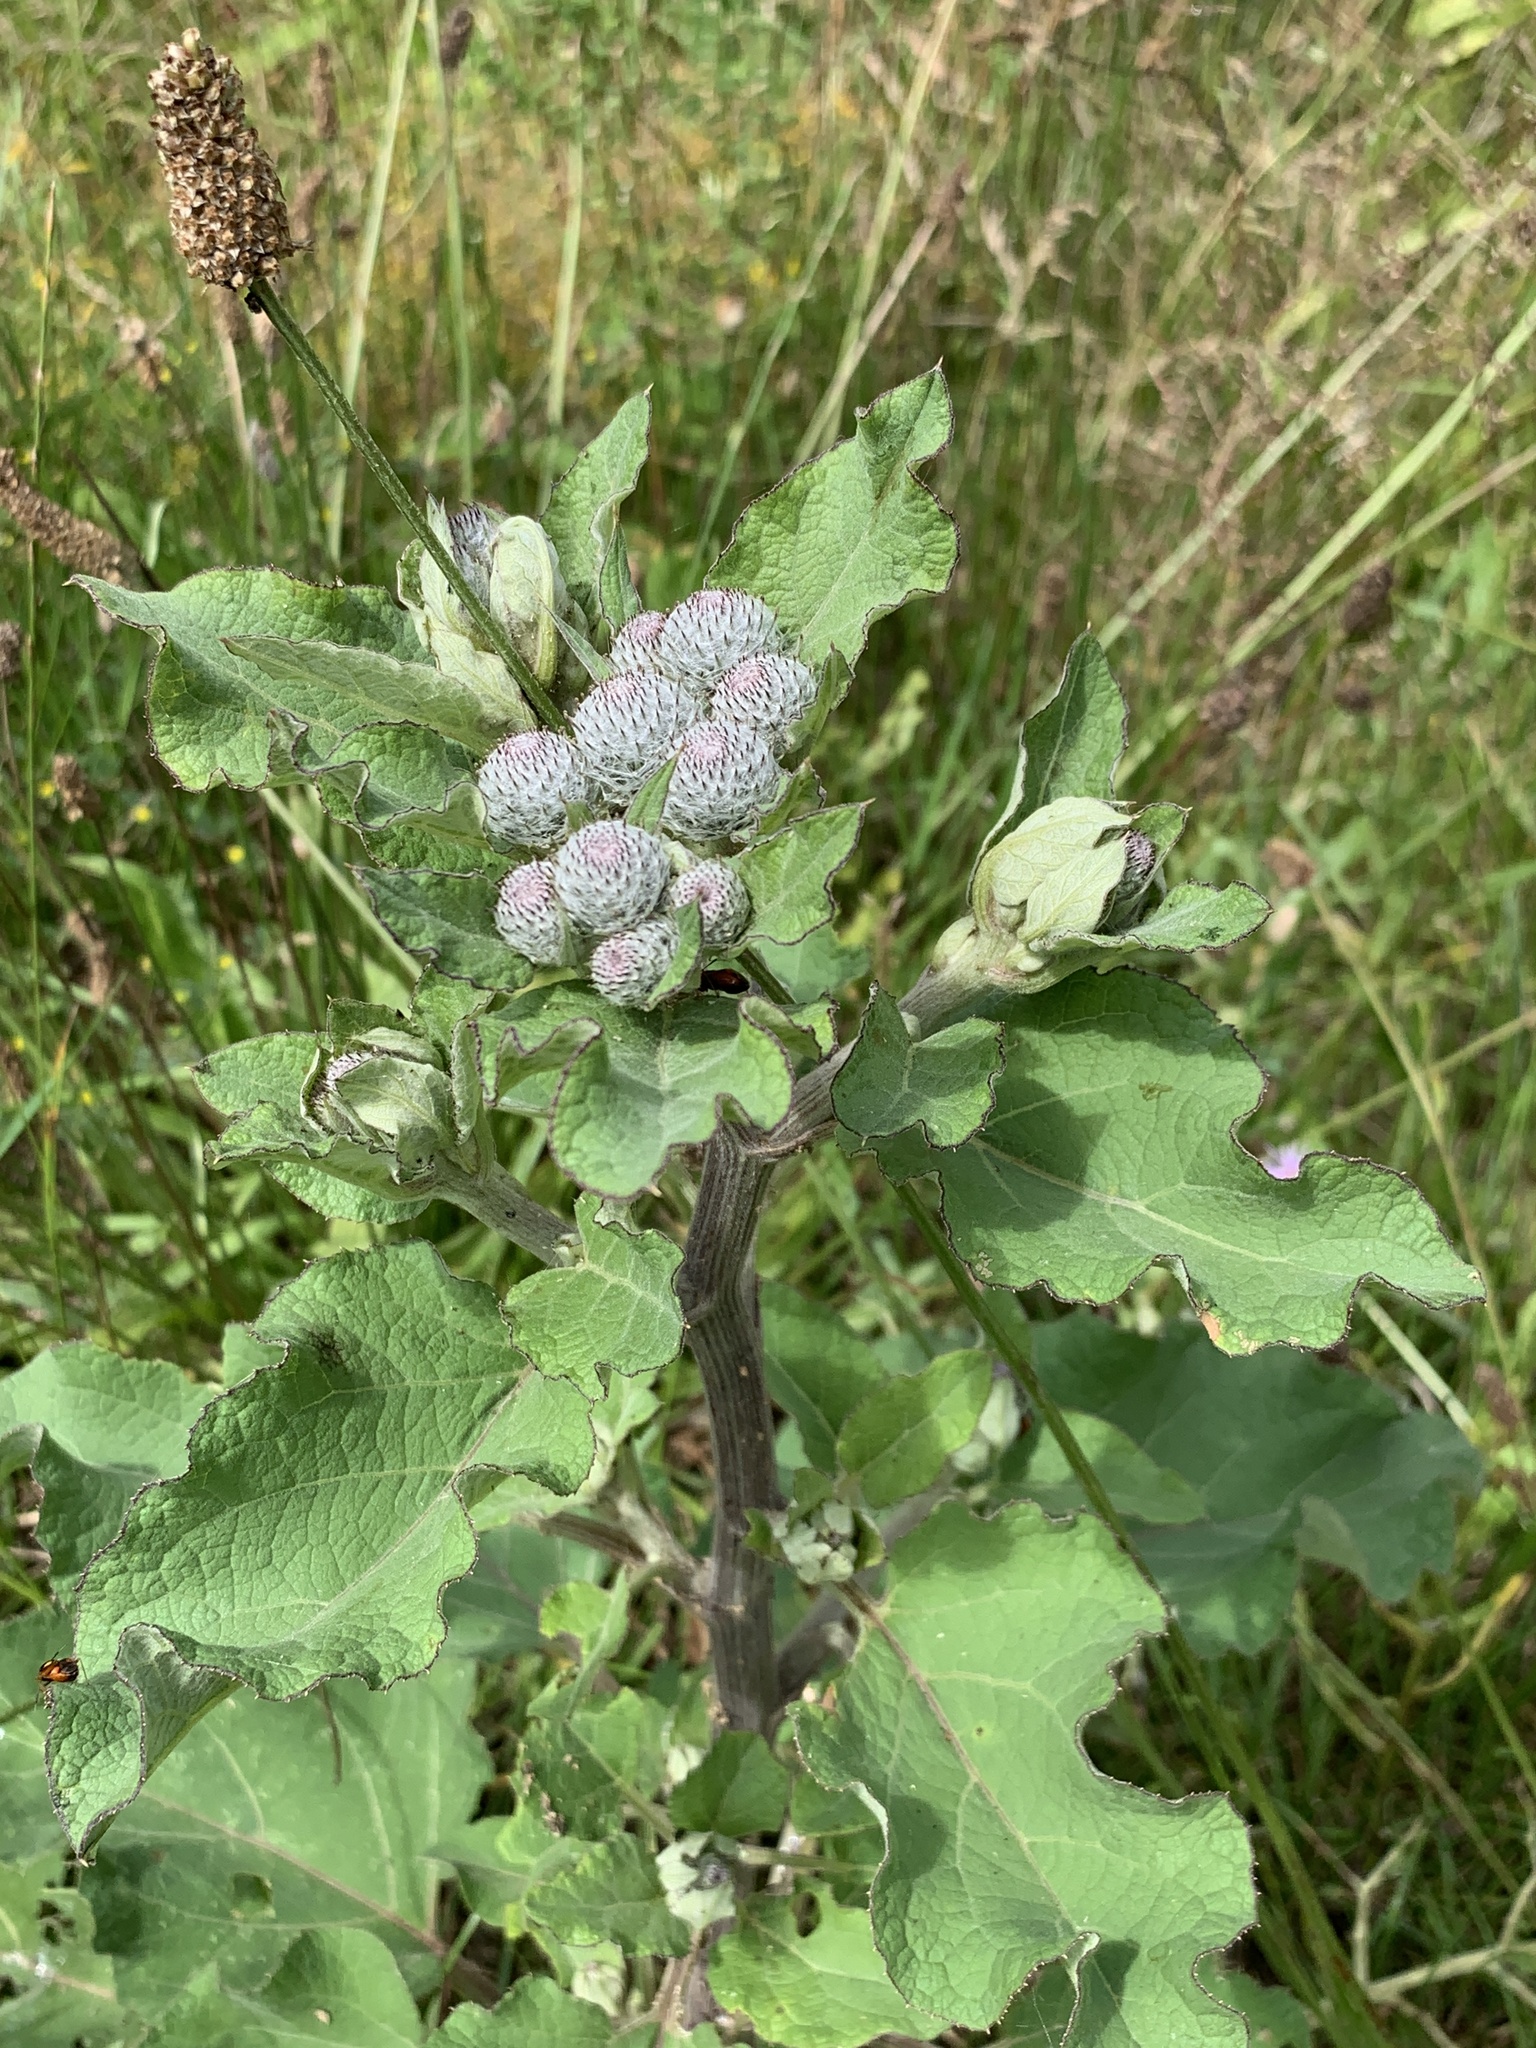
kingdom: Plantae
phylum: Tracheophyta
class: Magnoliopsida
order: Asterales
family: Asteraceae
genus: Arctium
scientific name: Arctium tomentosum
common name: Woolly burdock
